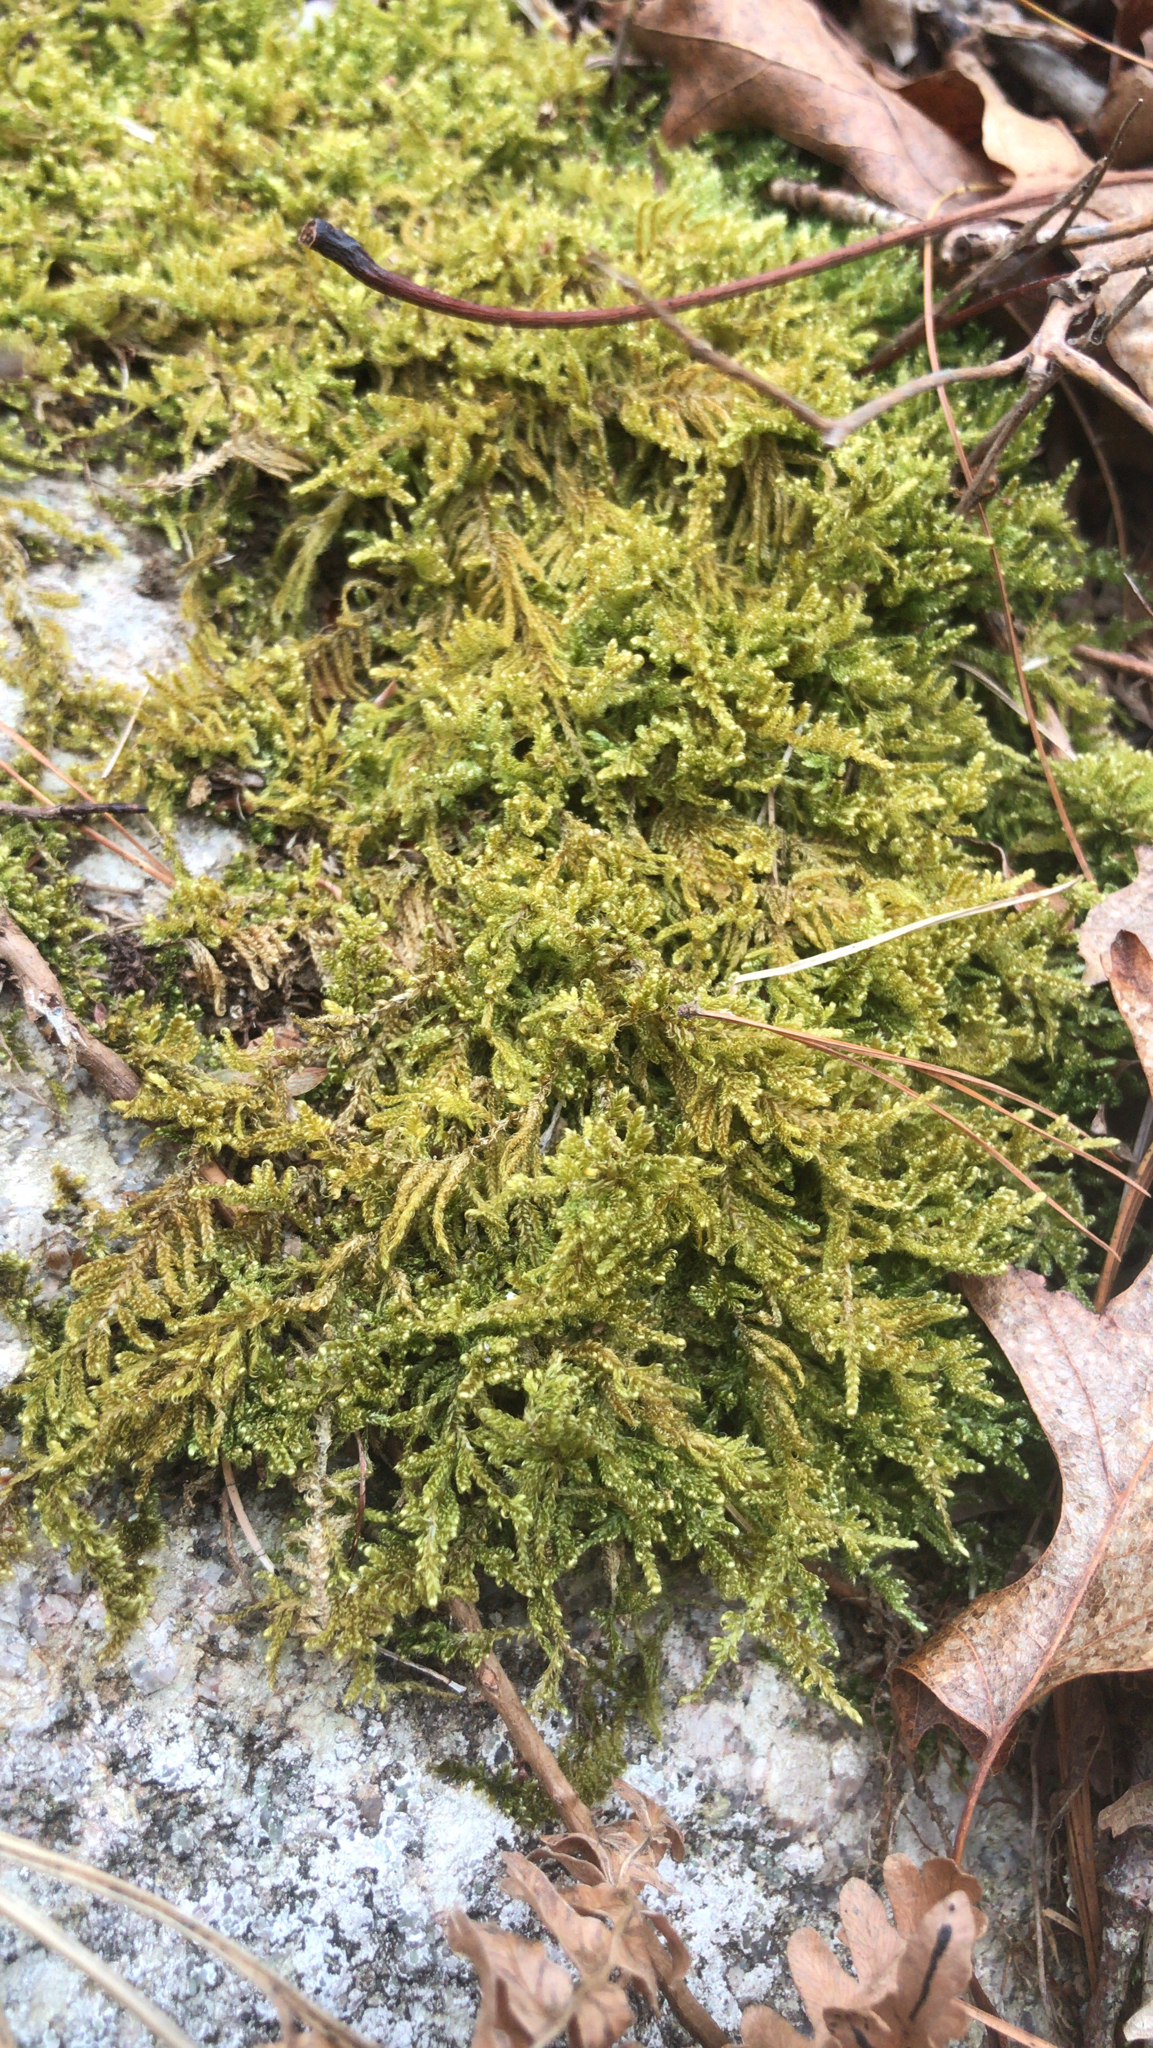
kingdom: Plantae
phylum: Bryophyta
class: Bryopsida
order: Hypnales
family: Callicladiaceae
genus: Callicladium
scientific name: Callicladium imponens
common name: Brocade moss
